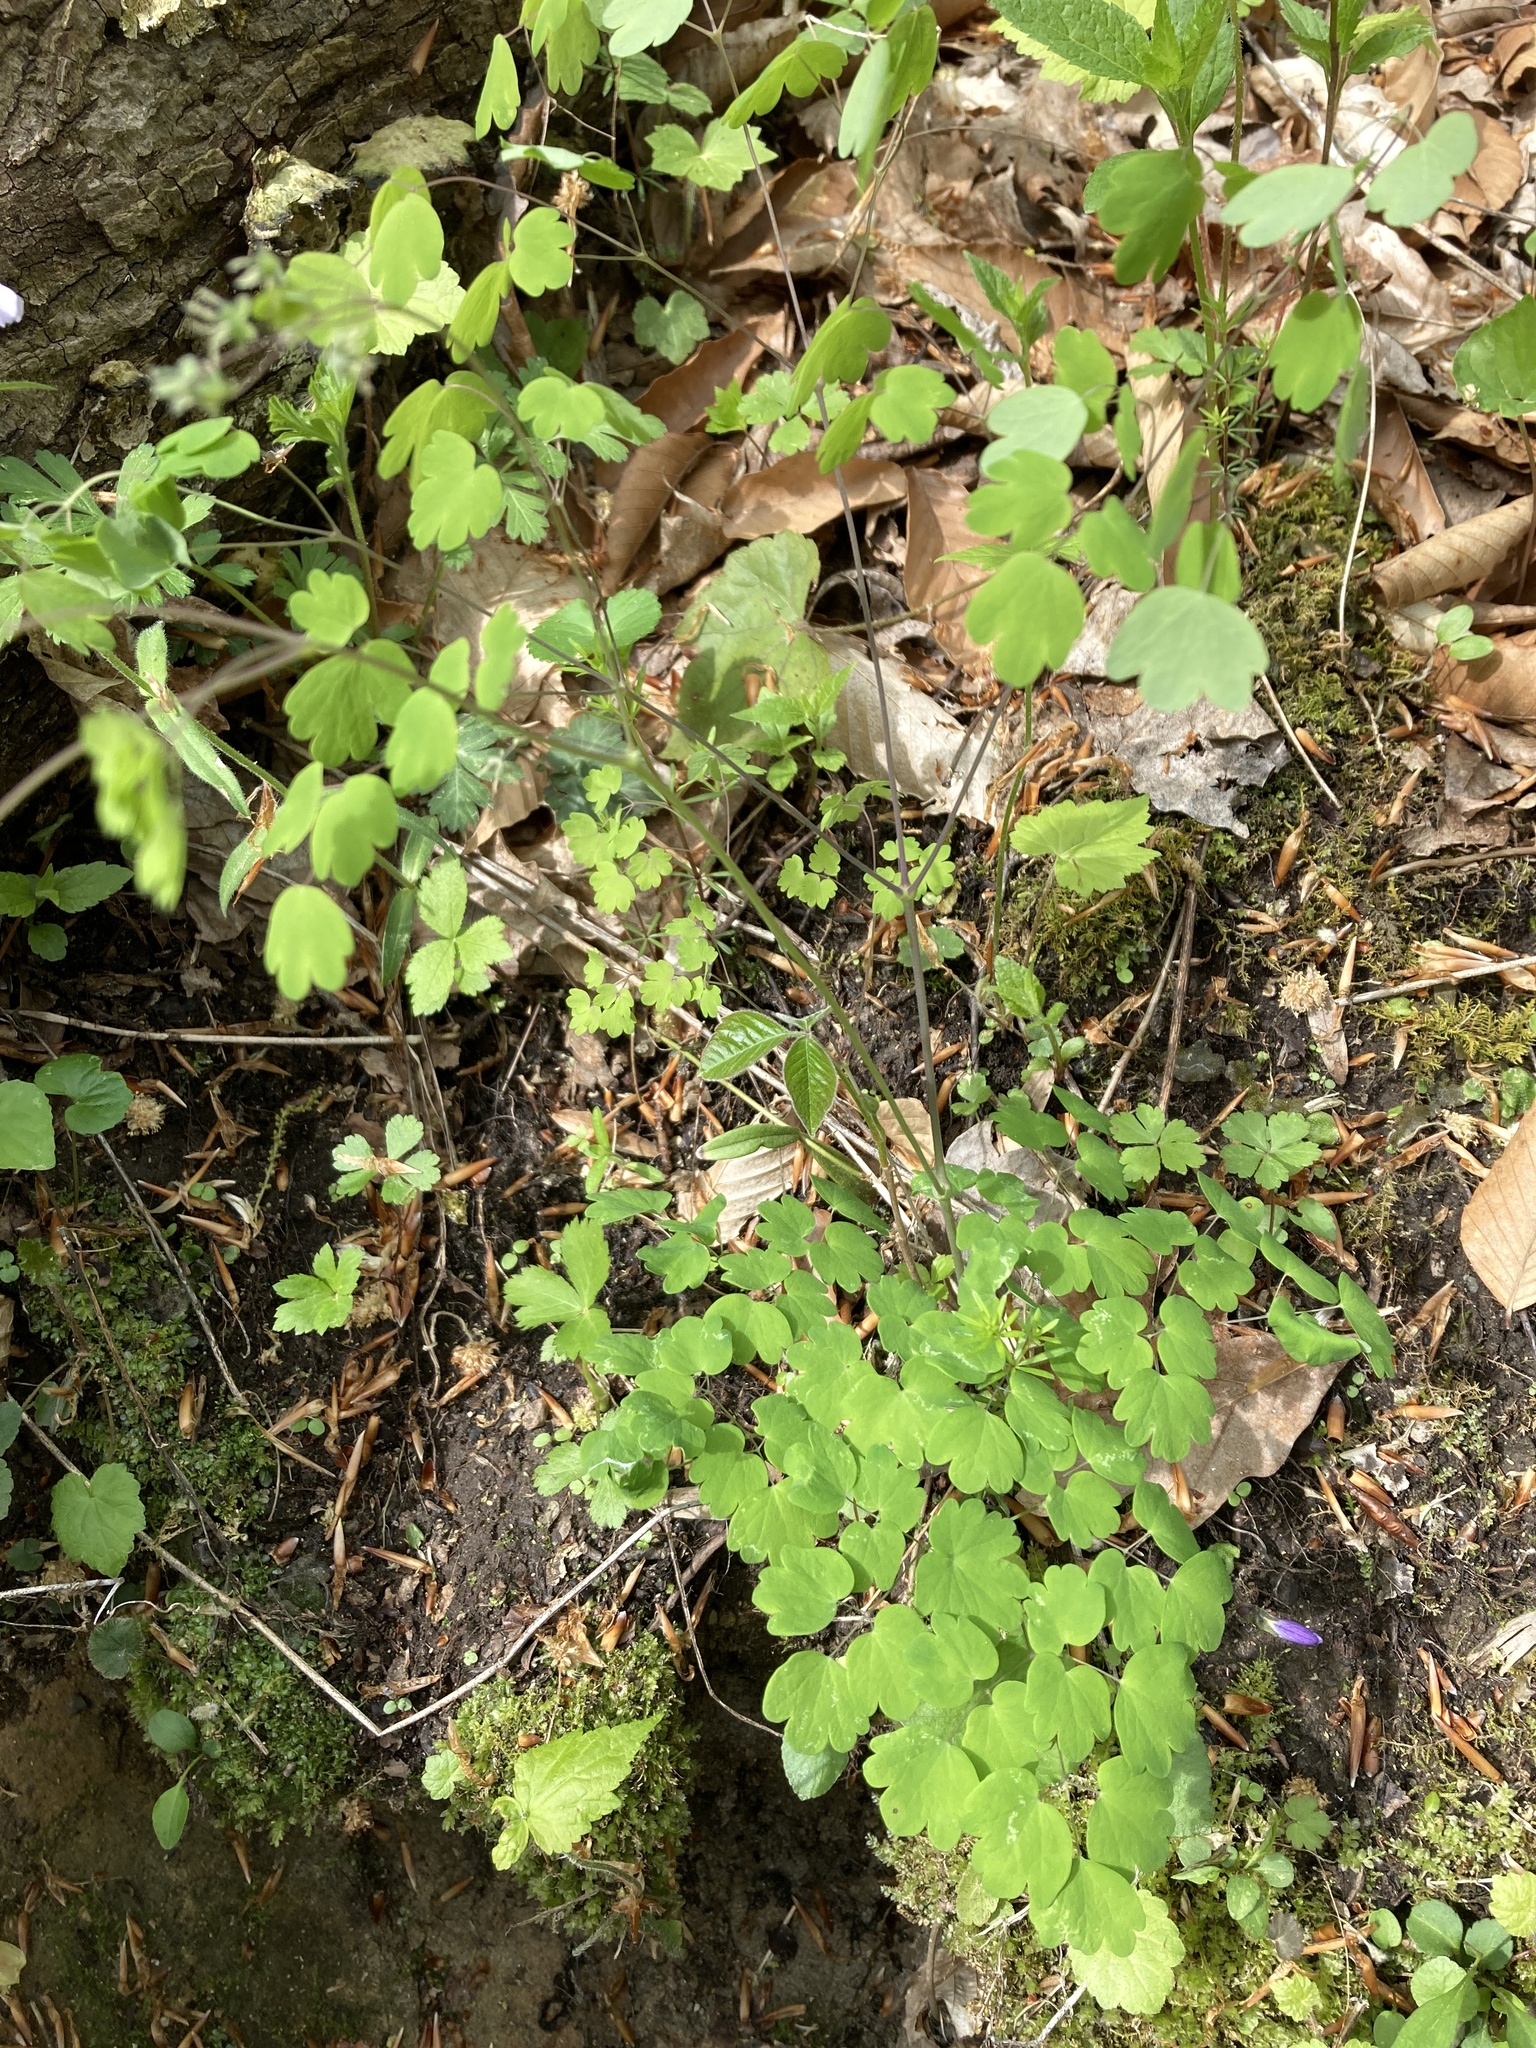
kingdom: Plantae
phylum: Tracheophyta
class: Magnoliopsida
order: Ranunculales
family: Ranunculaceae
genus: Thalictrum
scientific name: Thalictrum dioicum
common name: Early meadow-rue
